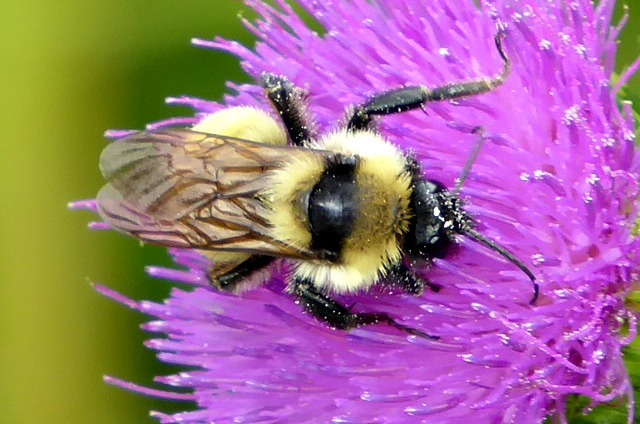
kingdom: Animalia
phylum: Arthropoda
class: Insecta
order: Hymenoptera
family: Apidae
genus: Bombus
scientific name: Bombus fervidus
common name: Yellow bumble bee
